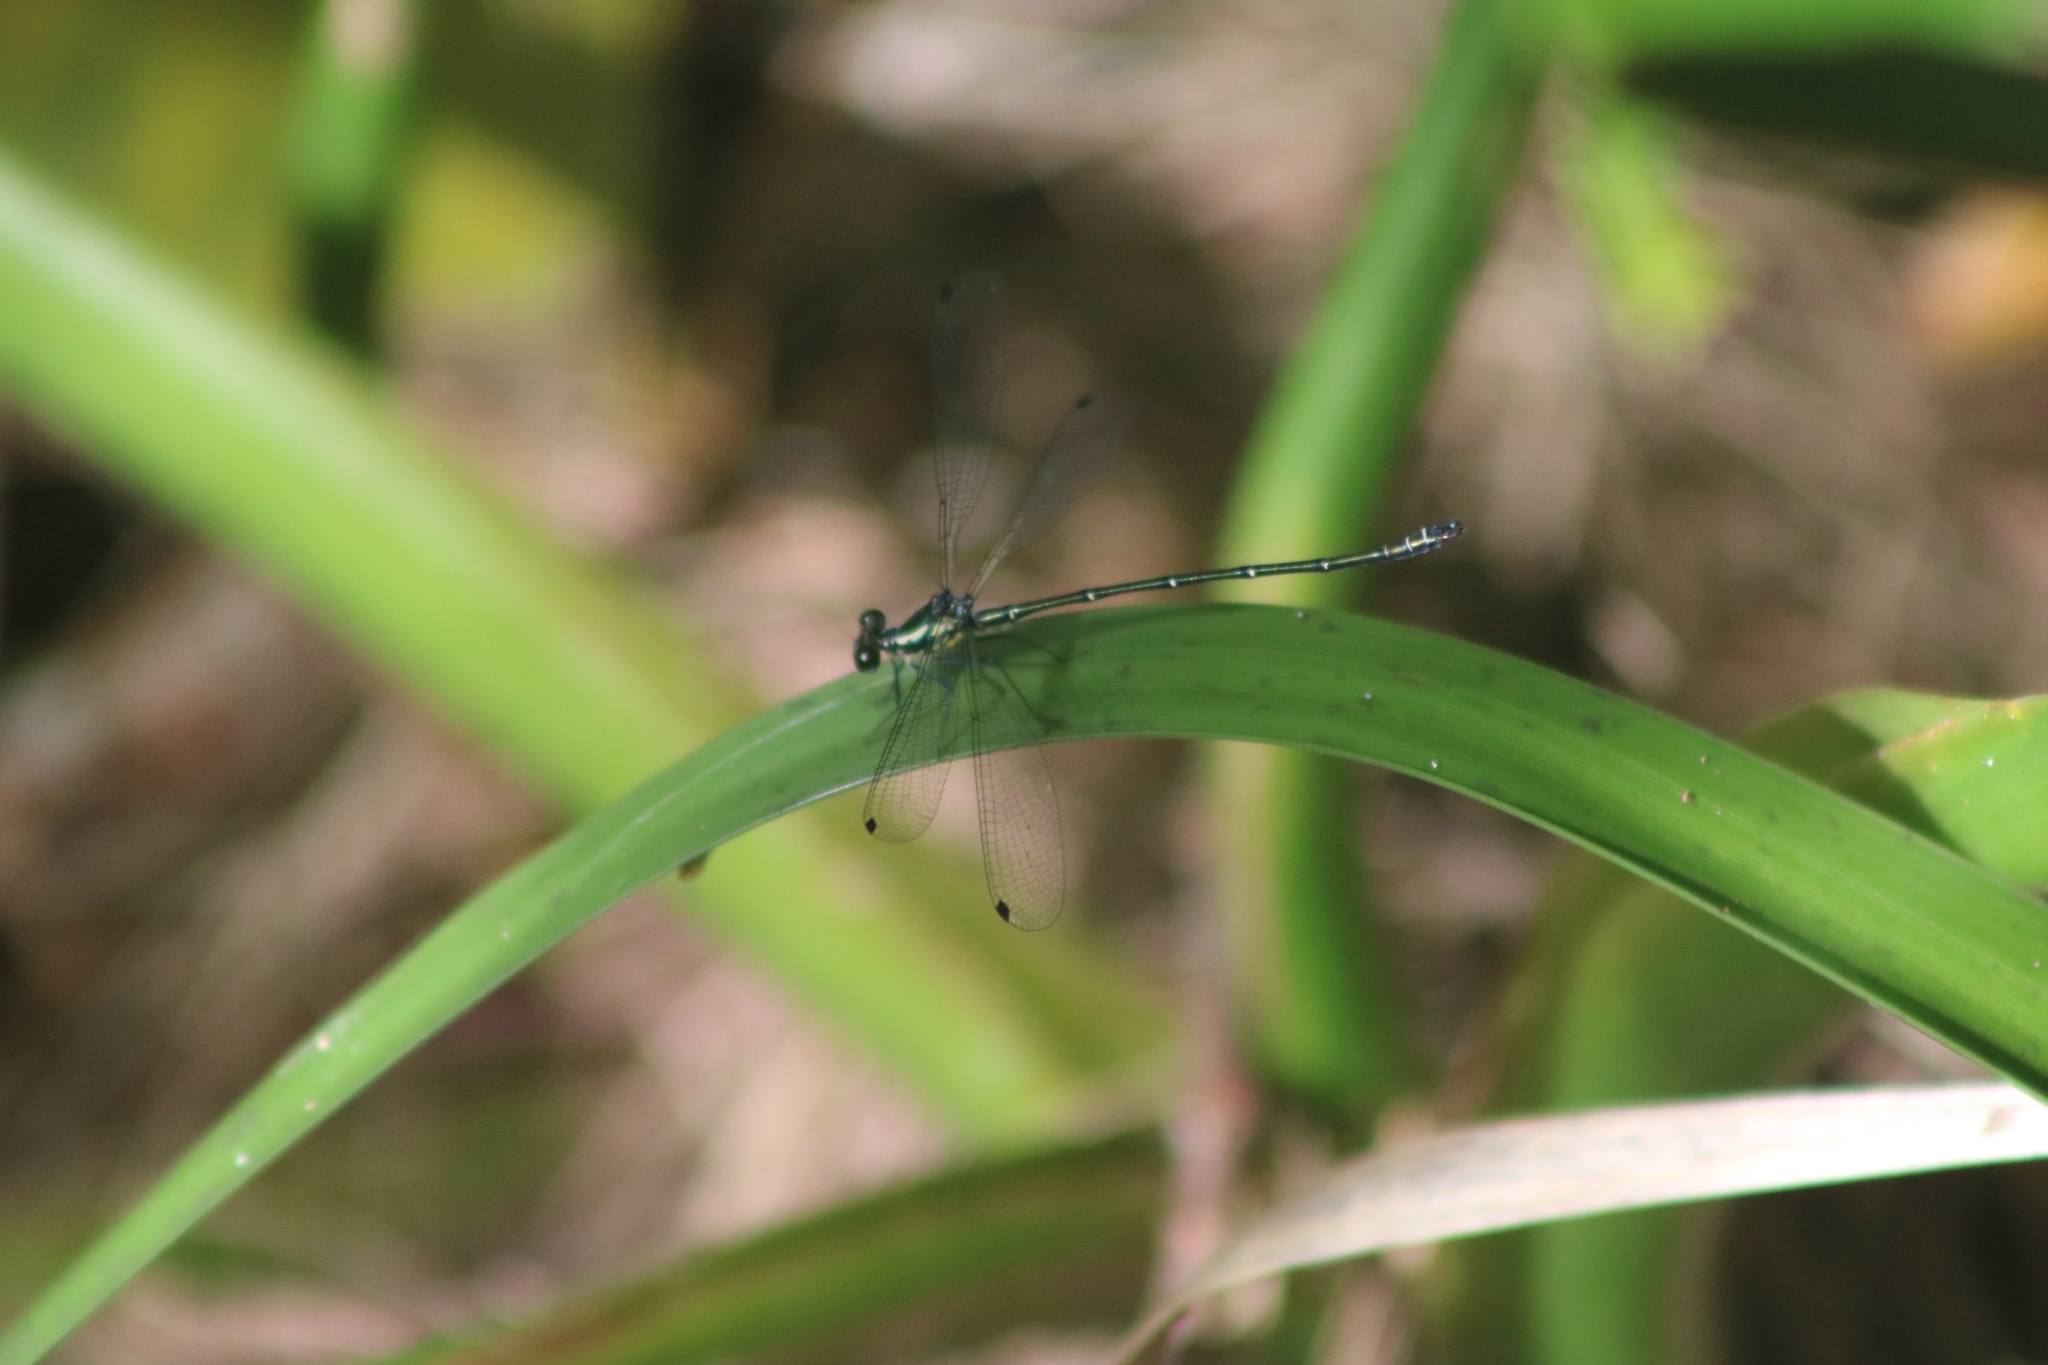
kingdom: Animalia
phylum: Arthropoda
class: Insecta
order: Odonata
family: Argiolestidae
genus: Austroargiolestes
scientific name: Austroargiolestes icteromelas
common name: Common flatwing
